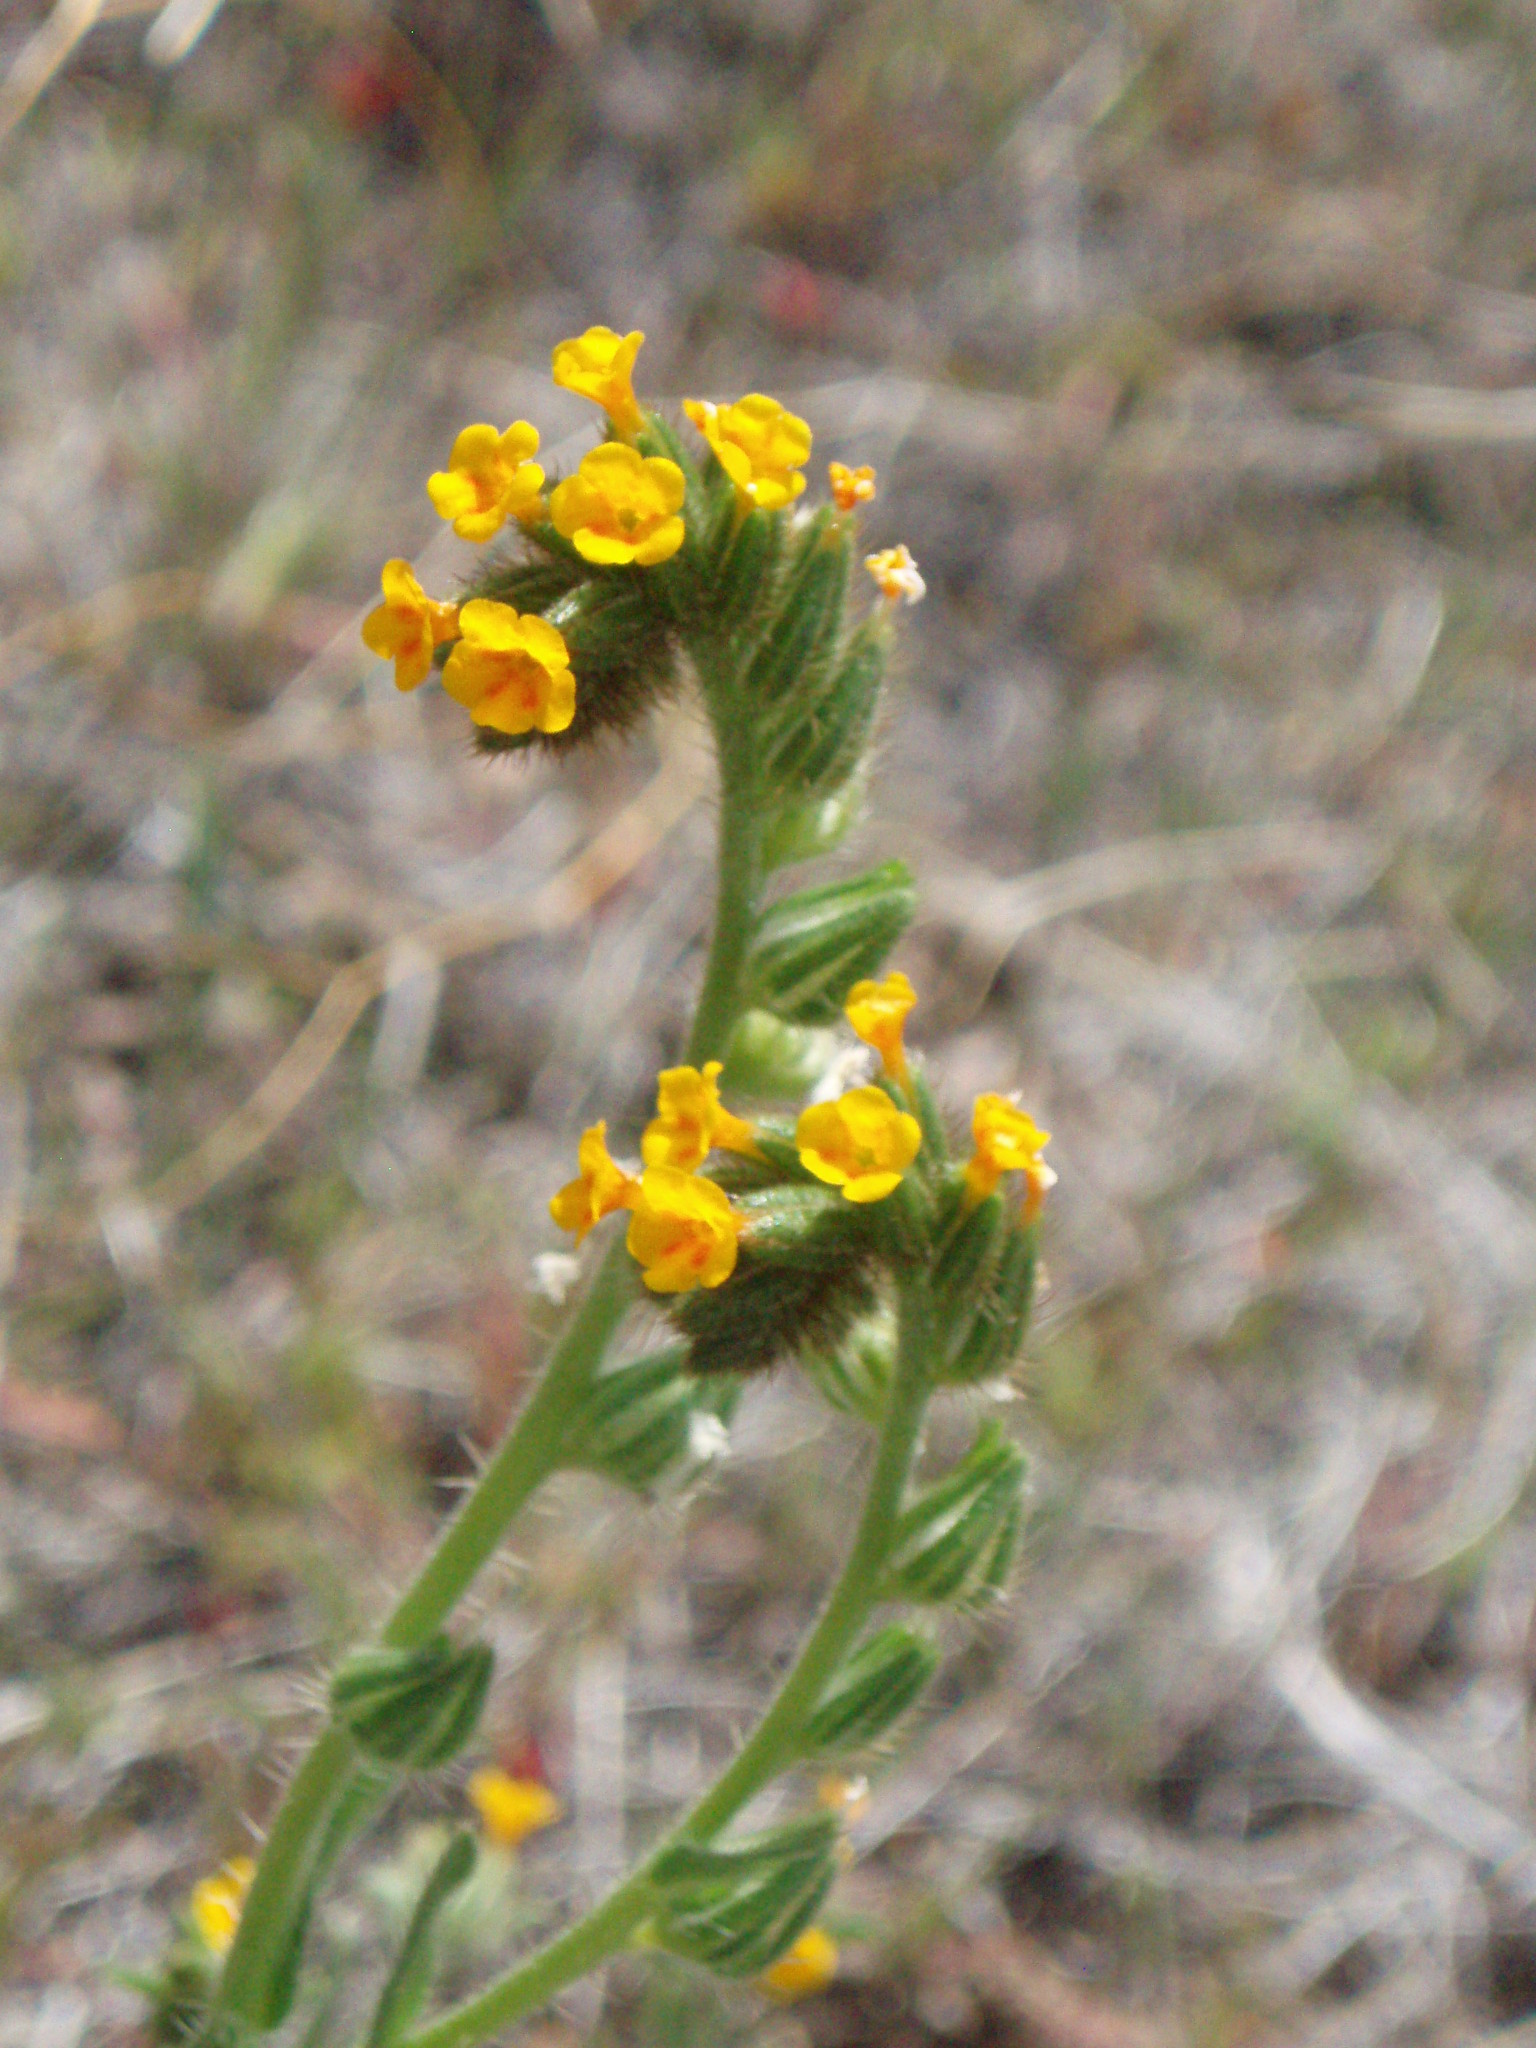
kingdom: Plantae
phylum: Tracheophyta
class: Magnoliopsida
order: Boraginales
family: Boraginaceae
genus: Amsinckia
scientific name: Amsinckia menziesii
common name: Menzies' fiddleneck
